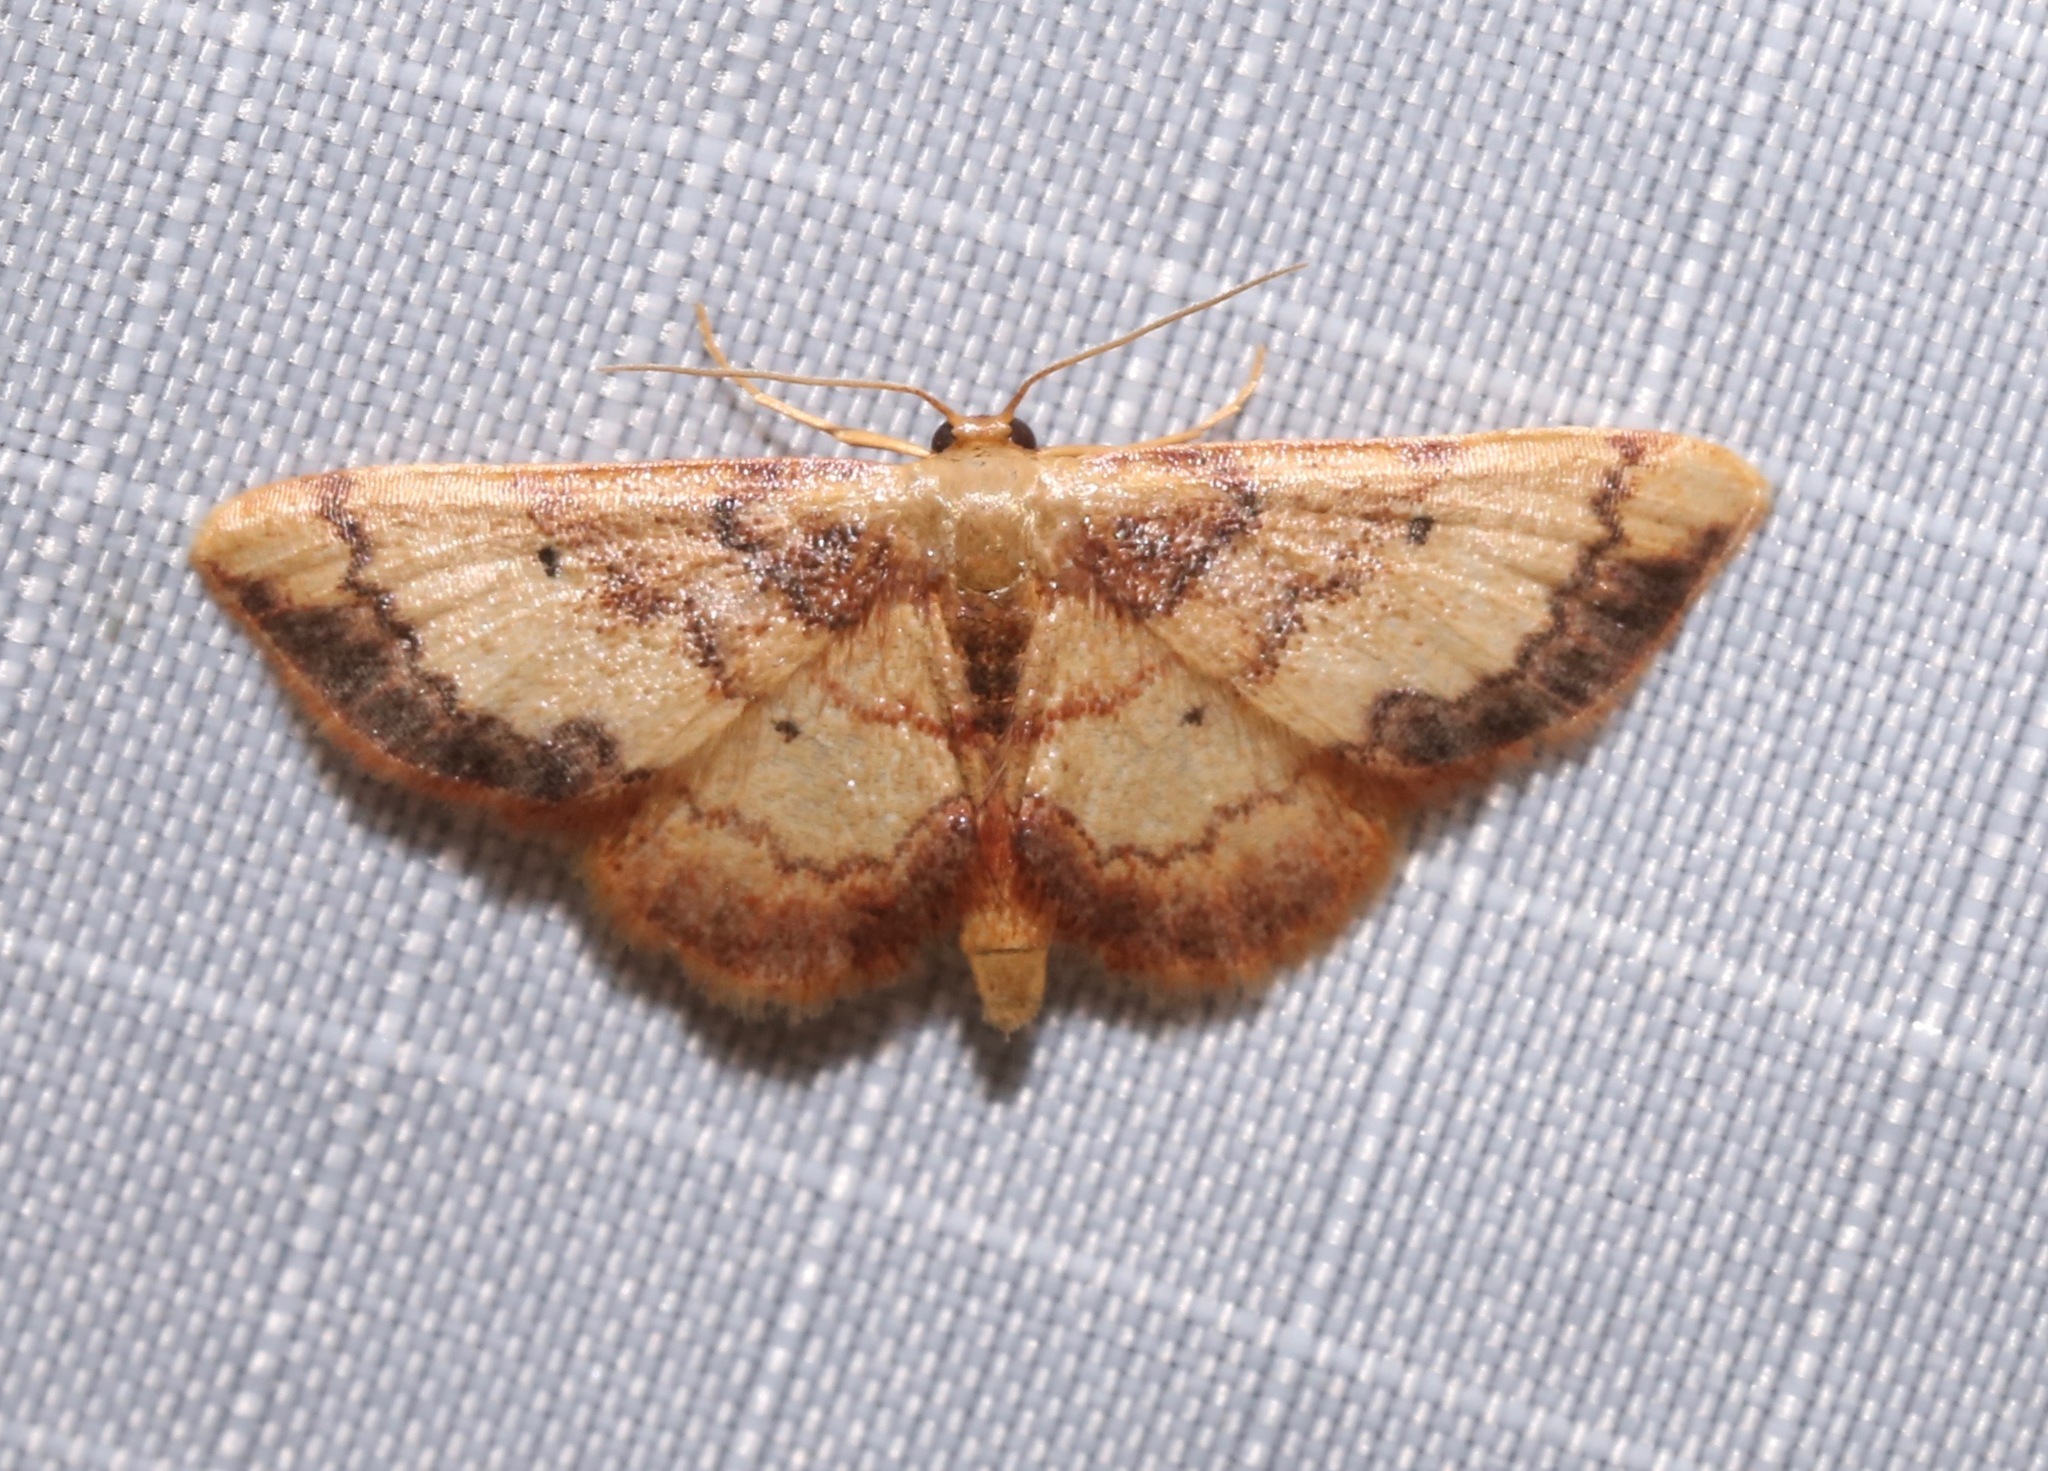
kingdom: Animalia
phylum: Arthropoda
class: Insecta
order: Lepidoptera
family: Geometridae
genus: Idaea
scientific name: Idaea demissaria
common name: Red-bordered wave
